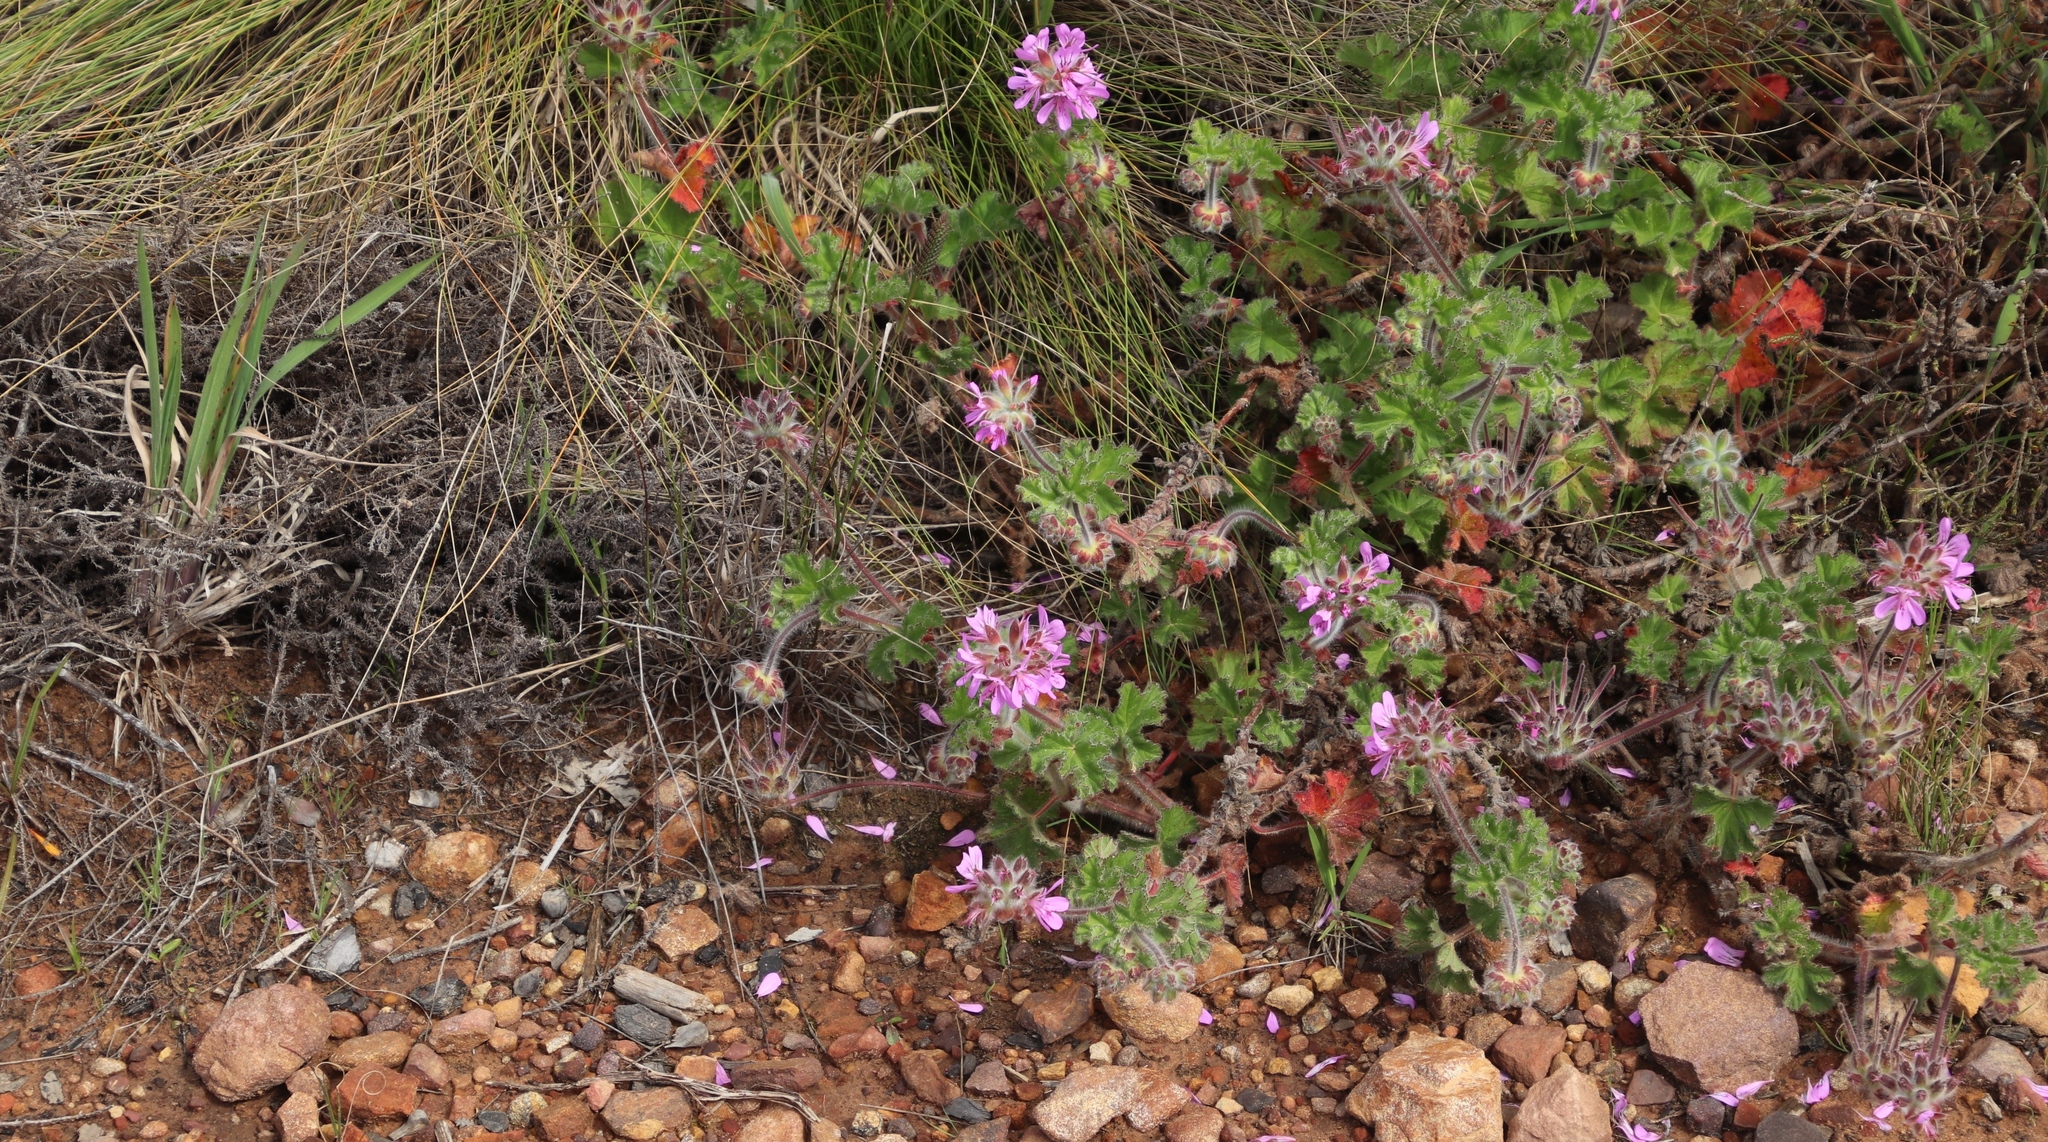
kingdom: Plantae
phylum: Tracheophyta
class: Magnoliopsida
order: Geraniales
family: Geraniaceae
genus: Pelargonium
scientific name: Pelargonium capitatum
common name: Rose scented geranium
